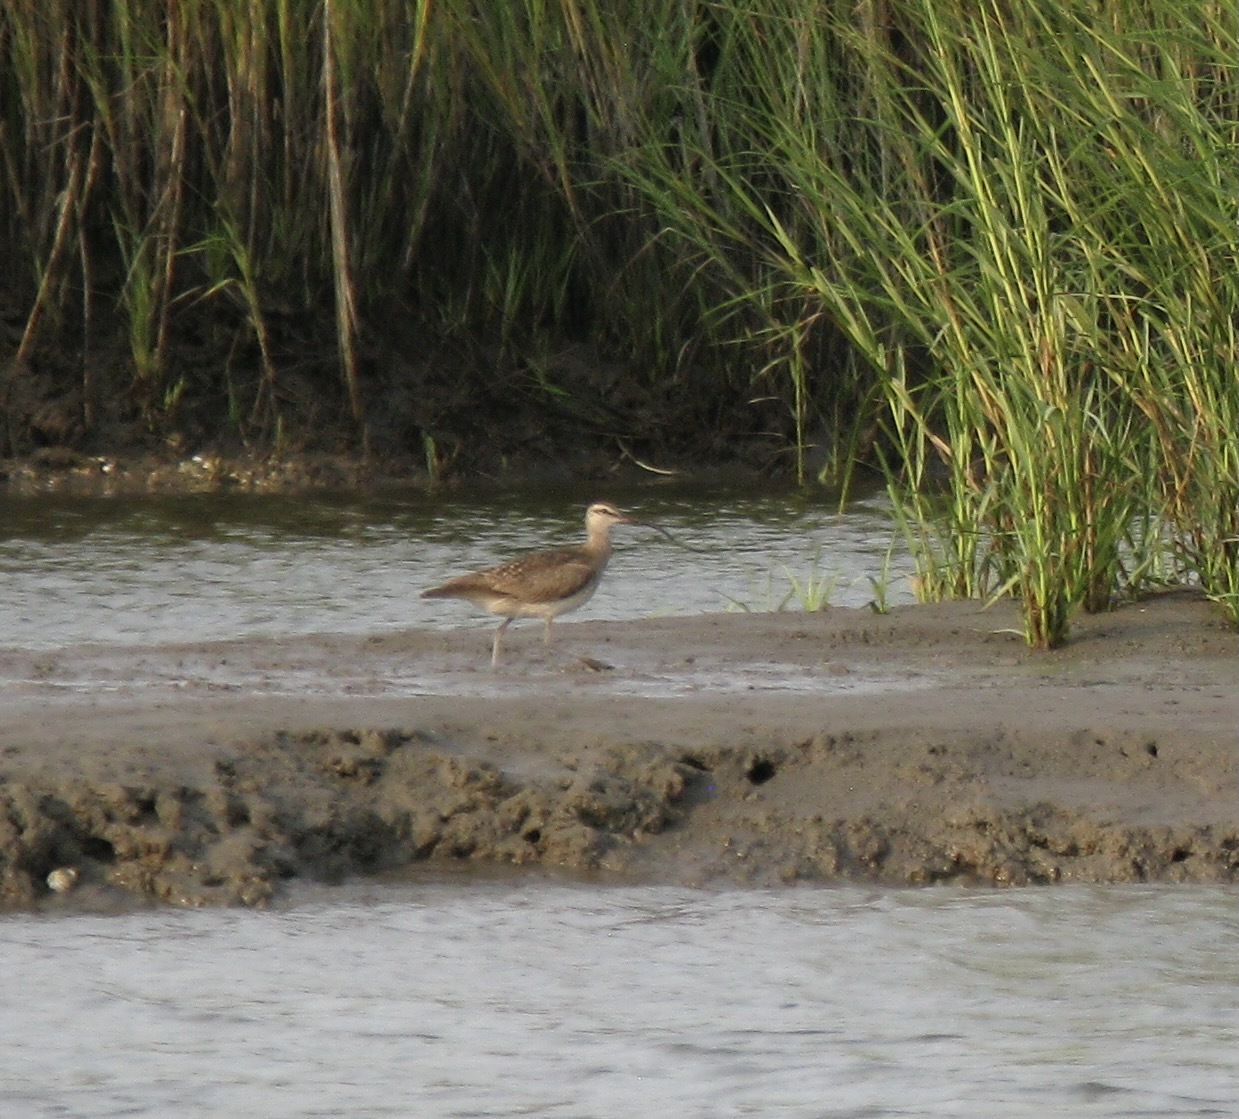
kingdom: Animalia
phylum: Chordata
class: Aves
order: Charadriiformes
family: Scolopacidae
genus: Numenius
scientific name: Numenius phaeopus
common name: Whimbrel
